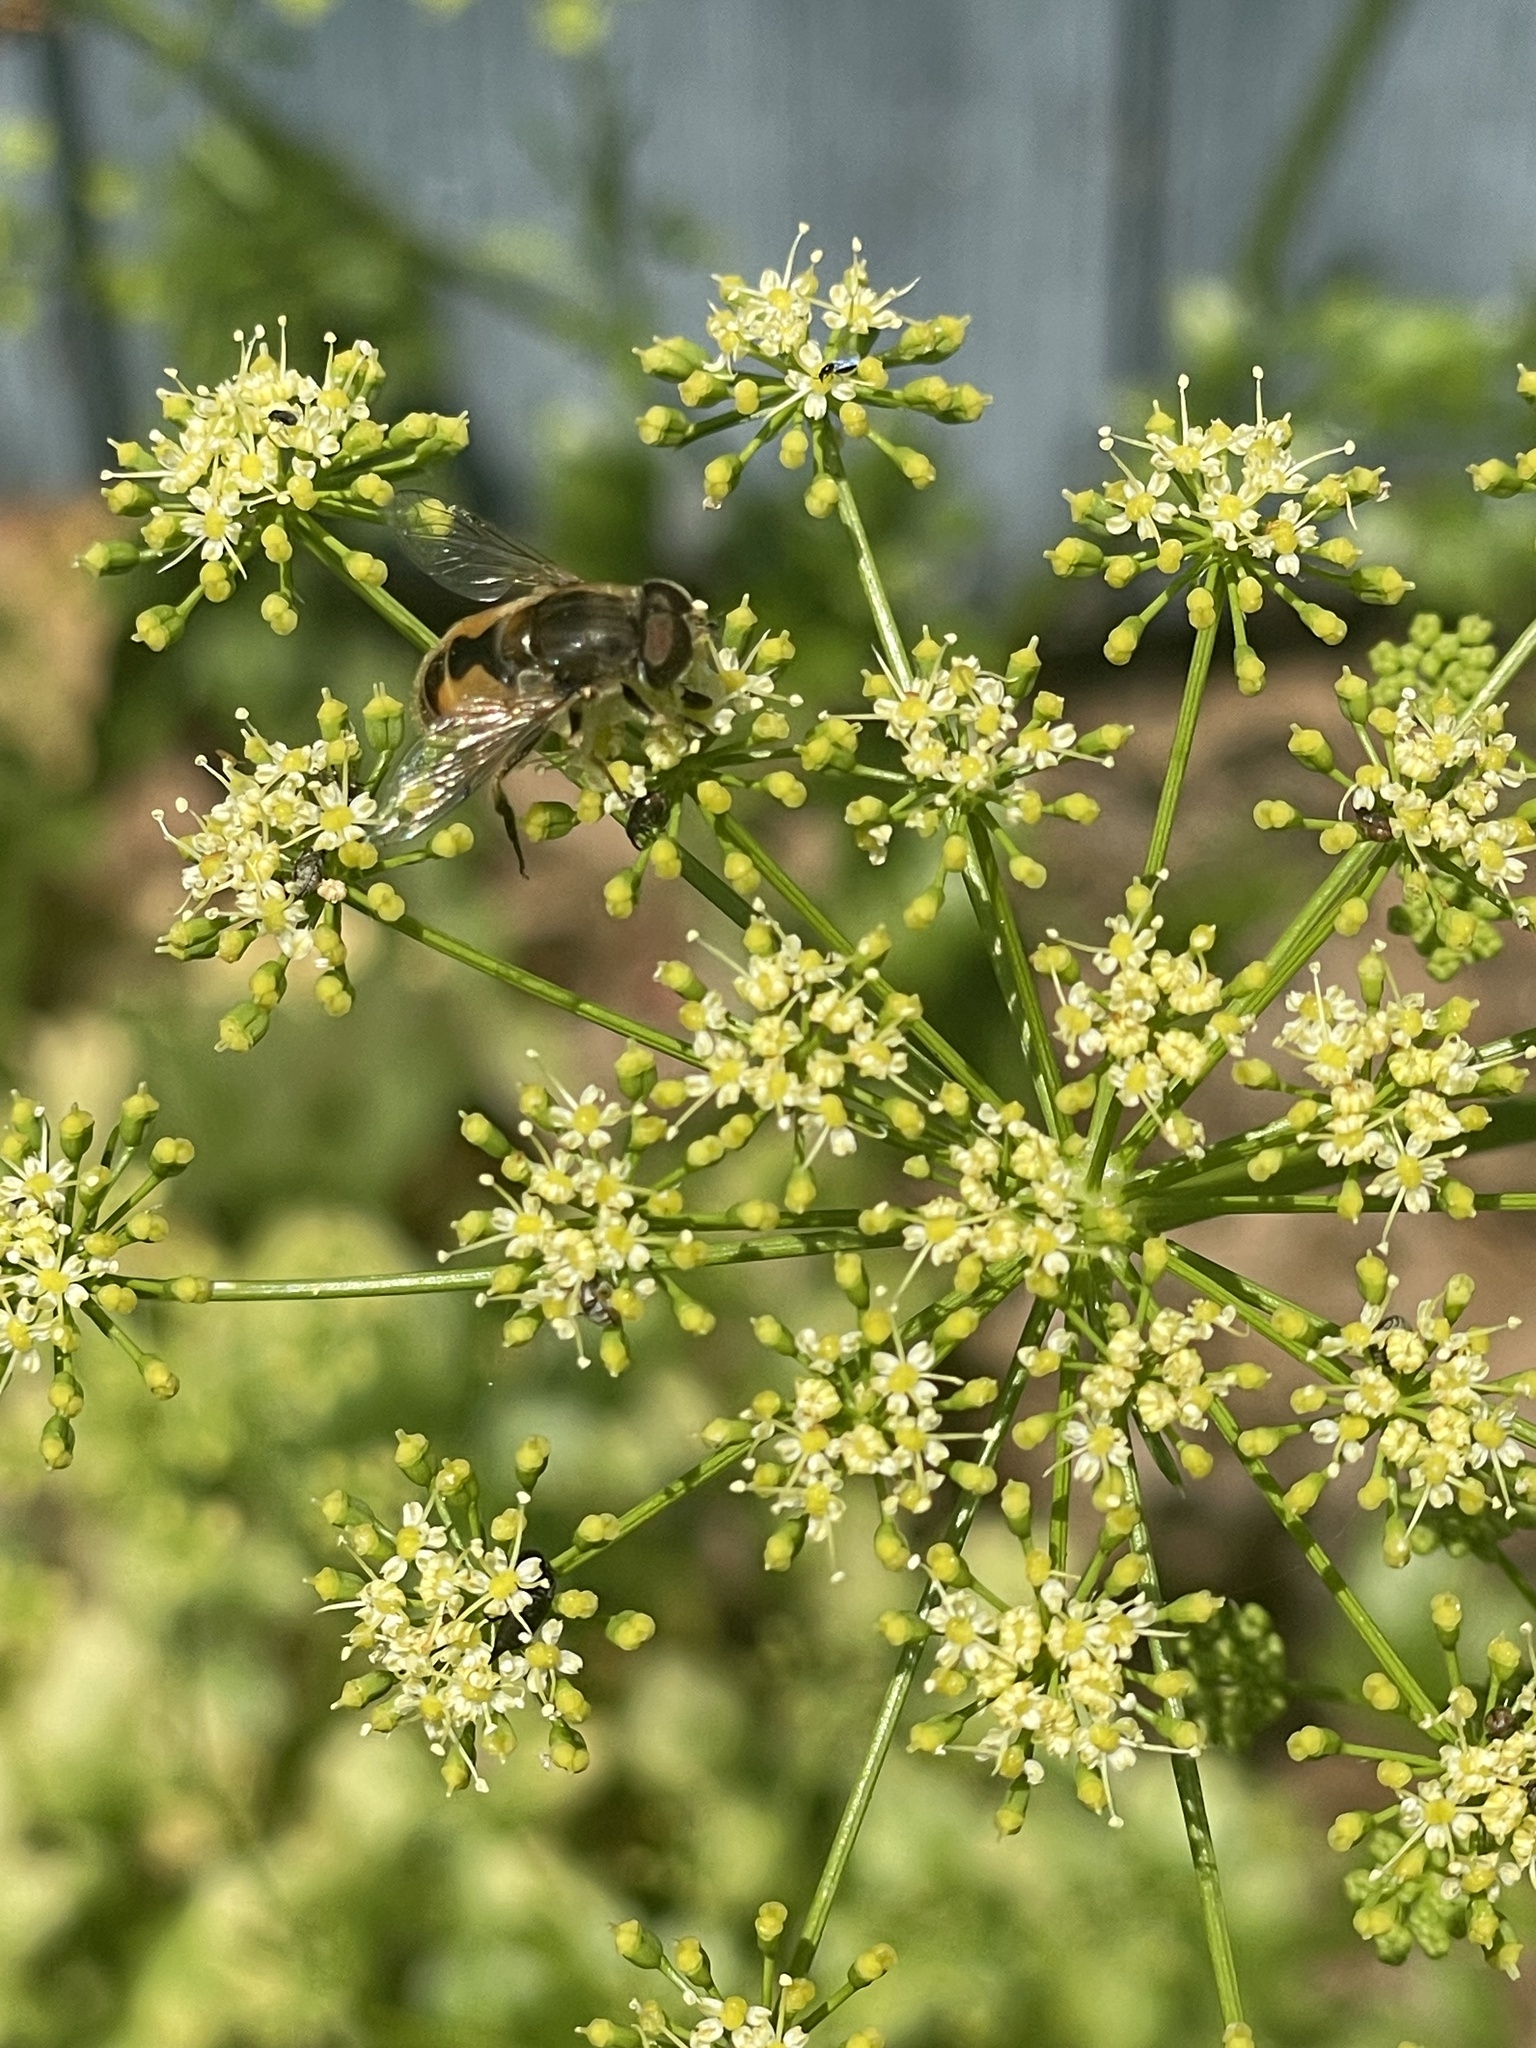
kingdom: Animalia
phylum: Arthropoda
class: Insecta
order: Diptera
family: Syrphidae
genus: Eristalis
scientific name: Eristalis arbustorum
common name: Hover fly
